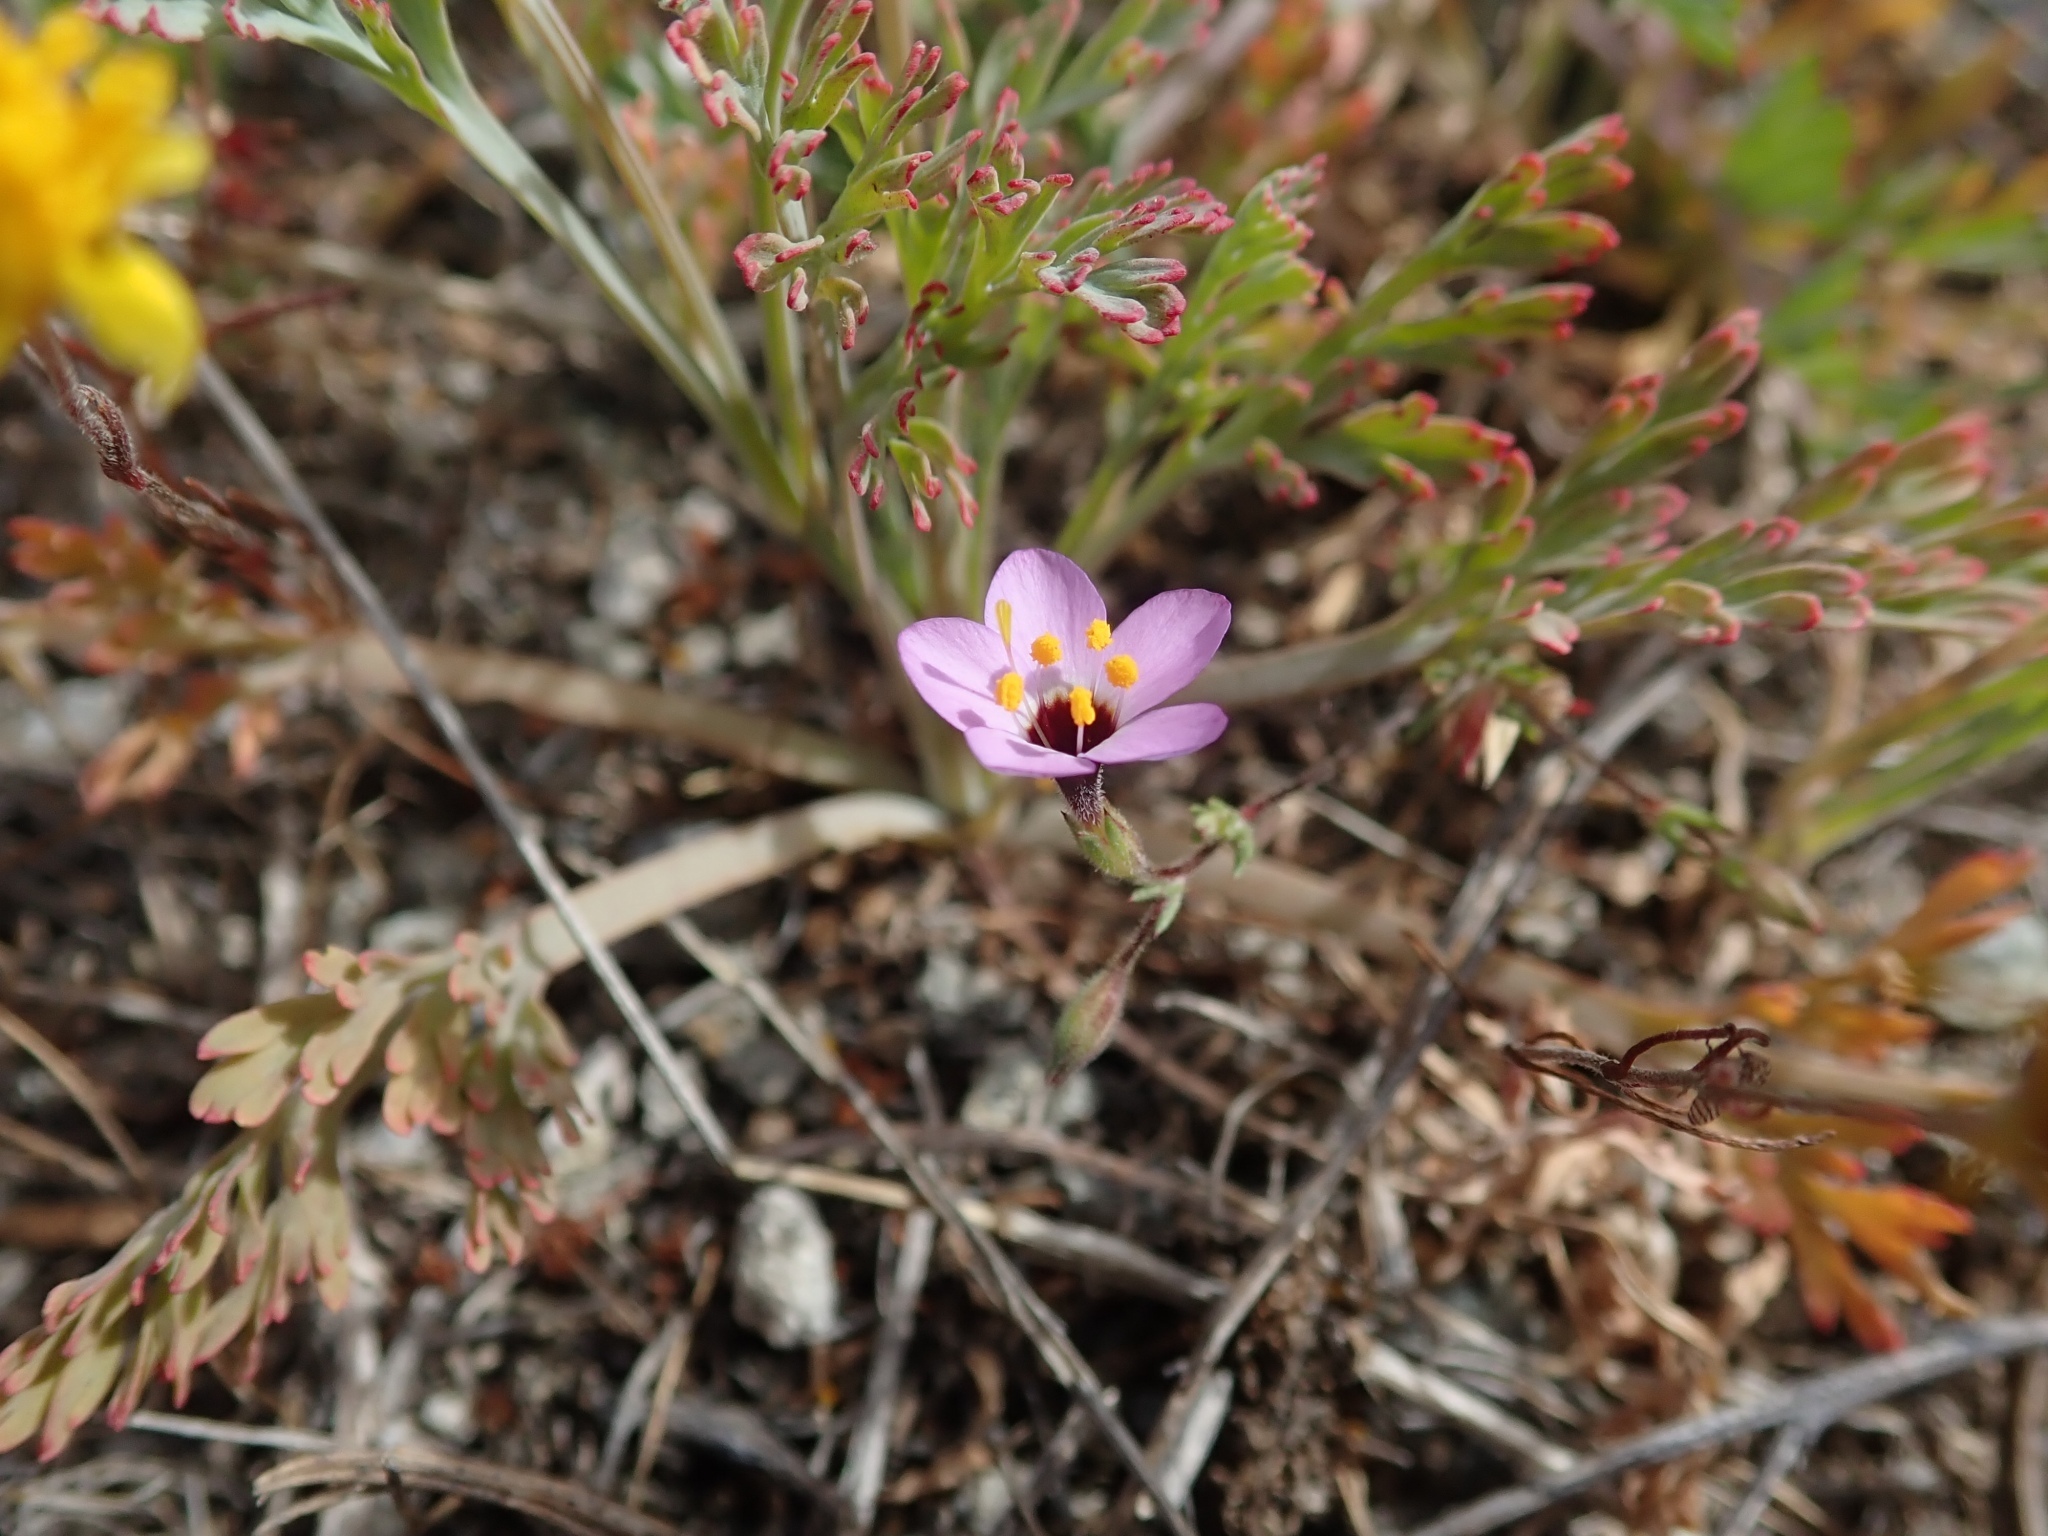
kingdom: Plantae
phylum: Tracheophyta
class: Magnoliopsida
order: Ericales
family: Polemoniaceae
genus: Leptosiphon
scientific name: Leptosiphon ambiguus
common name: Serpentine linanthus
